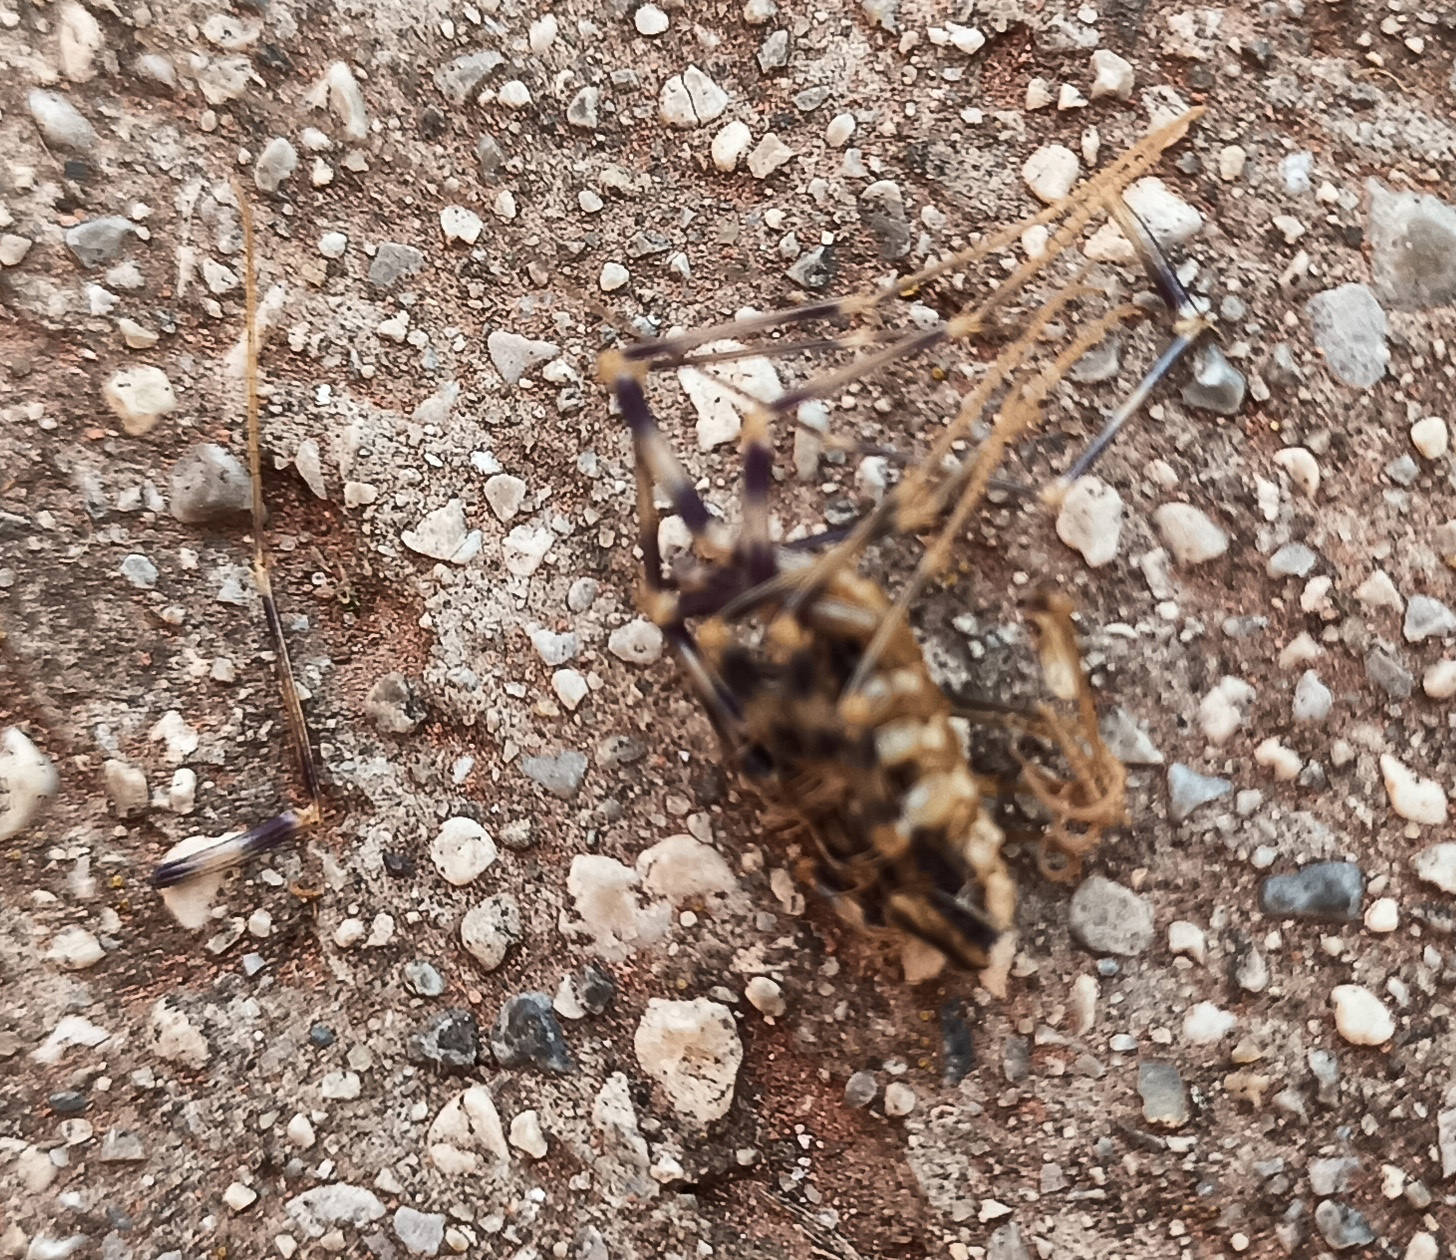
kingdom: Animalia
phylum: Arthropoda
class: Chilopoda
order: Scutigeromorpha
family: Scutigeridae
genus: Scutigera
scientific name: Scutigera coleoptrata
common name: House centipede
